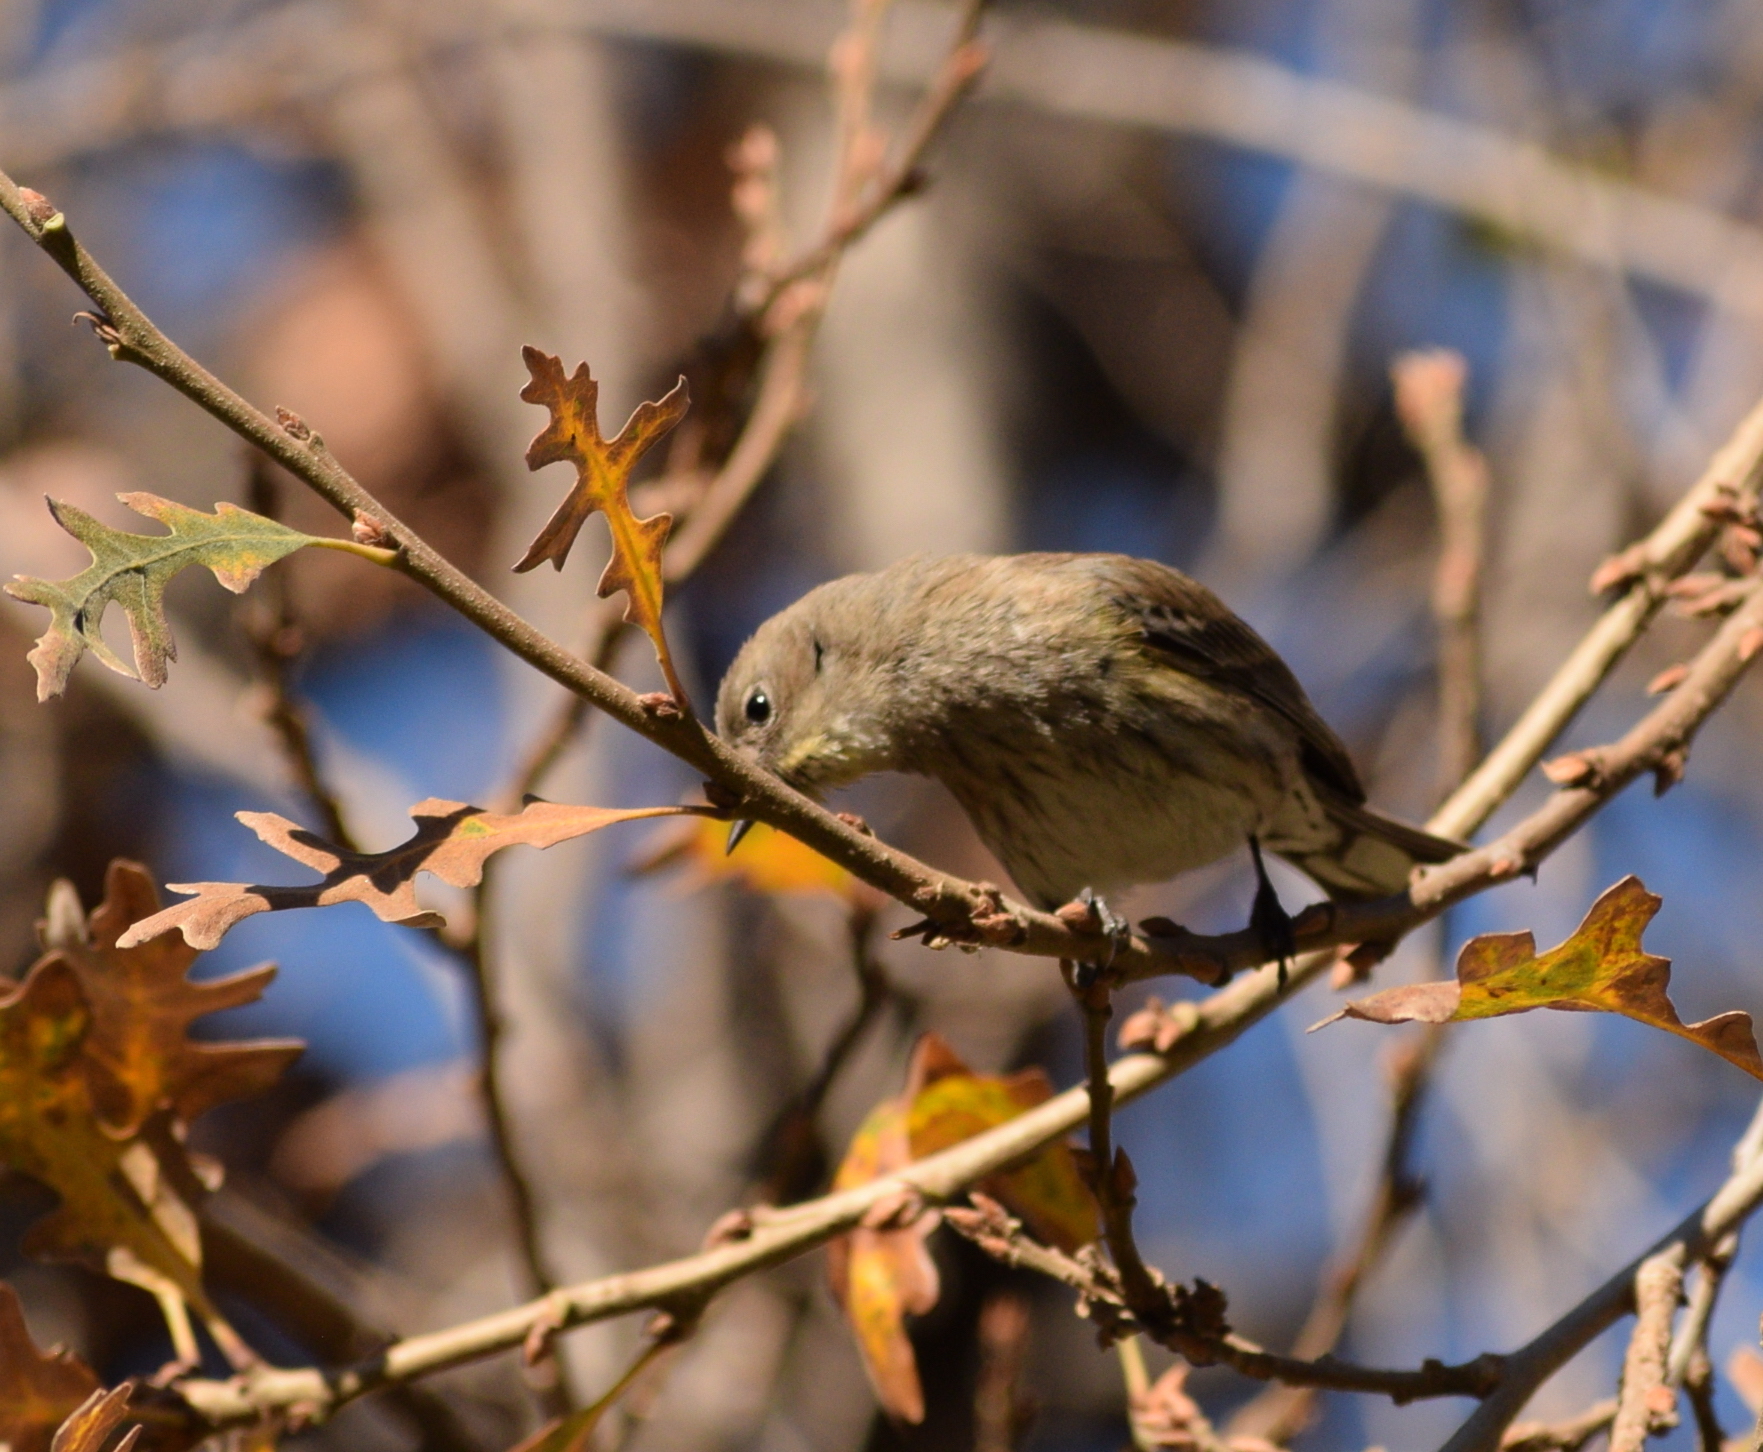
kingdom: Animalia
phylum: Chordata
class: Aves
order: Passeriformes
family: Parulidae
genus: Setophaga
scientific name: Setophaga coronata
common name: Myrtle warbler
